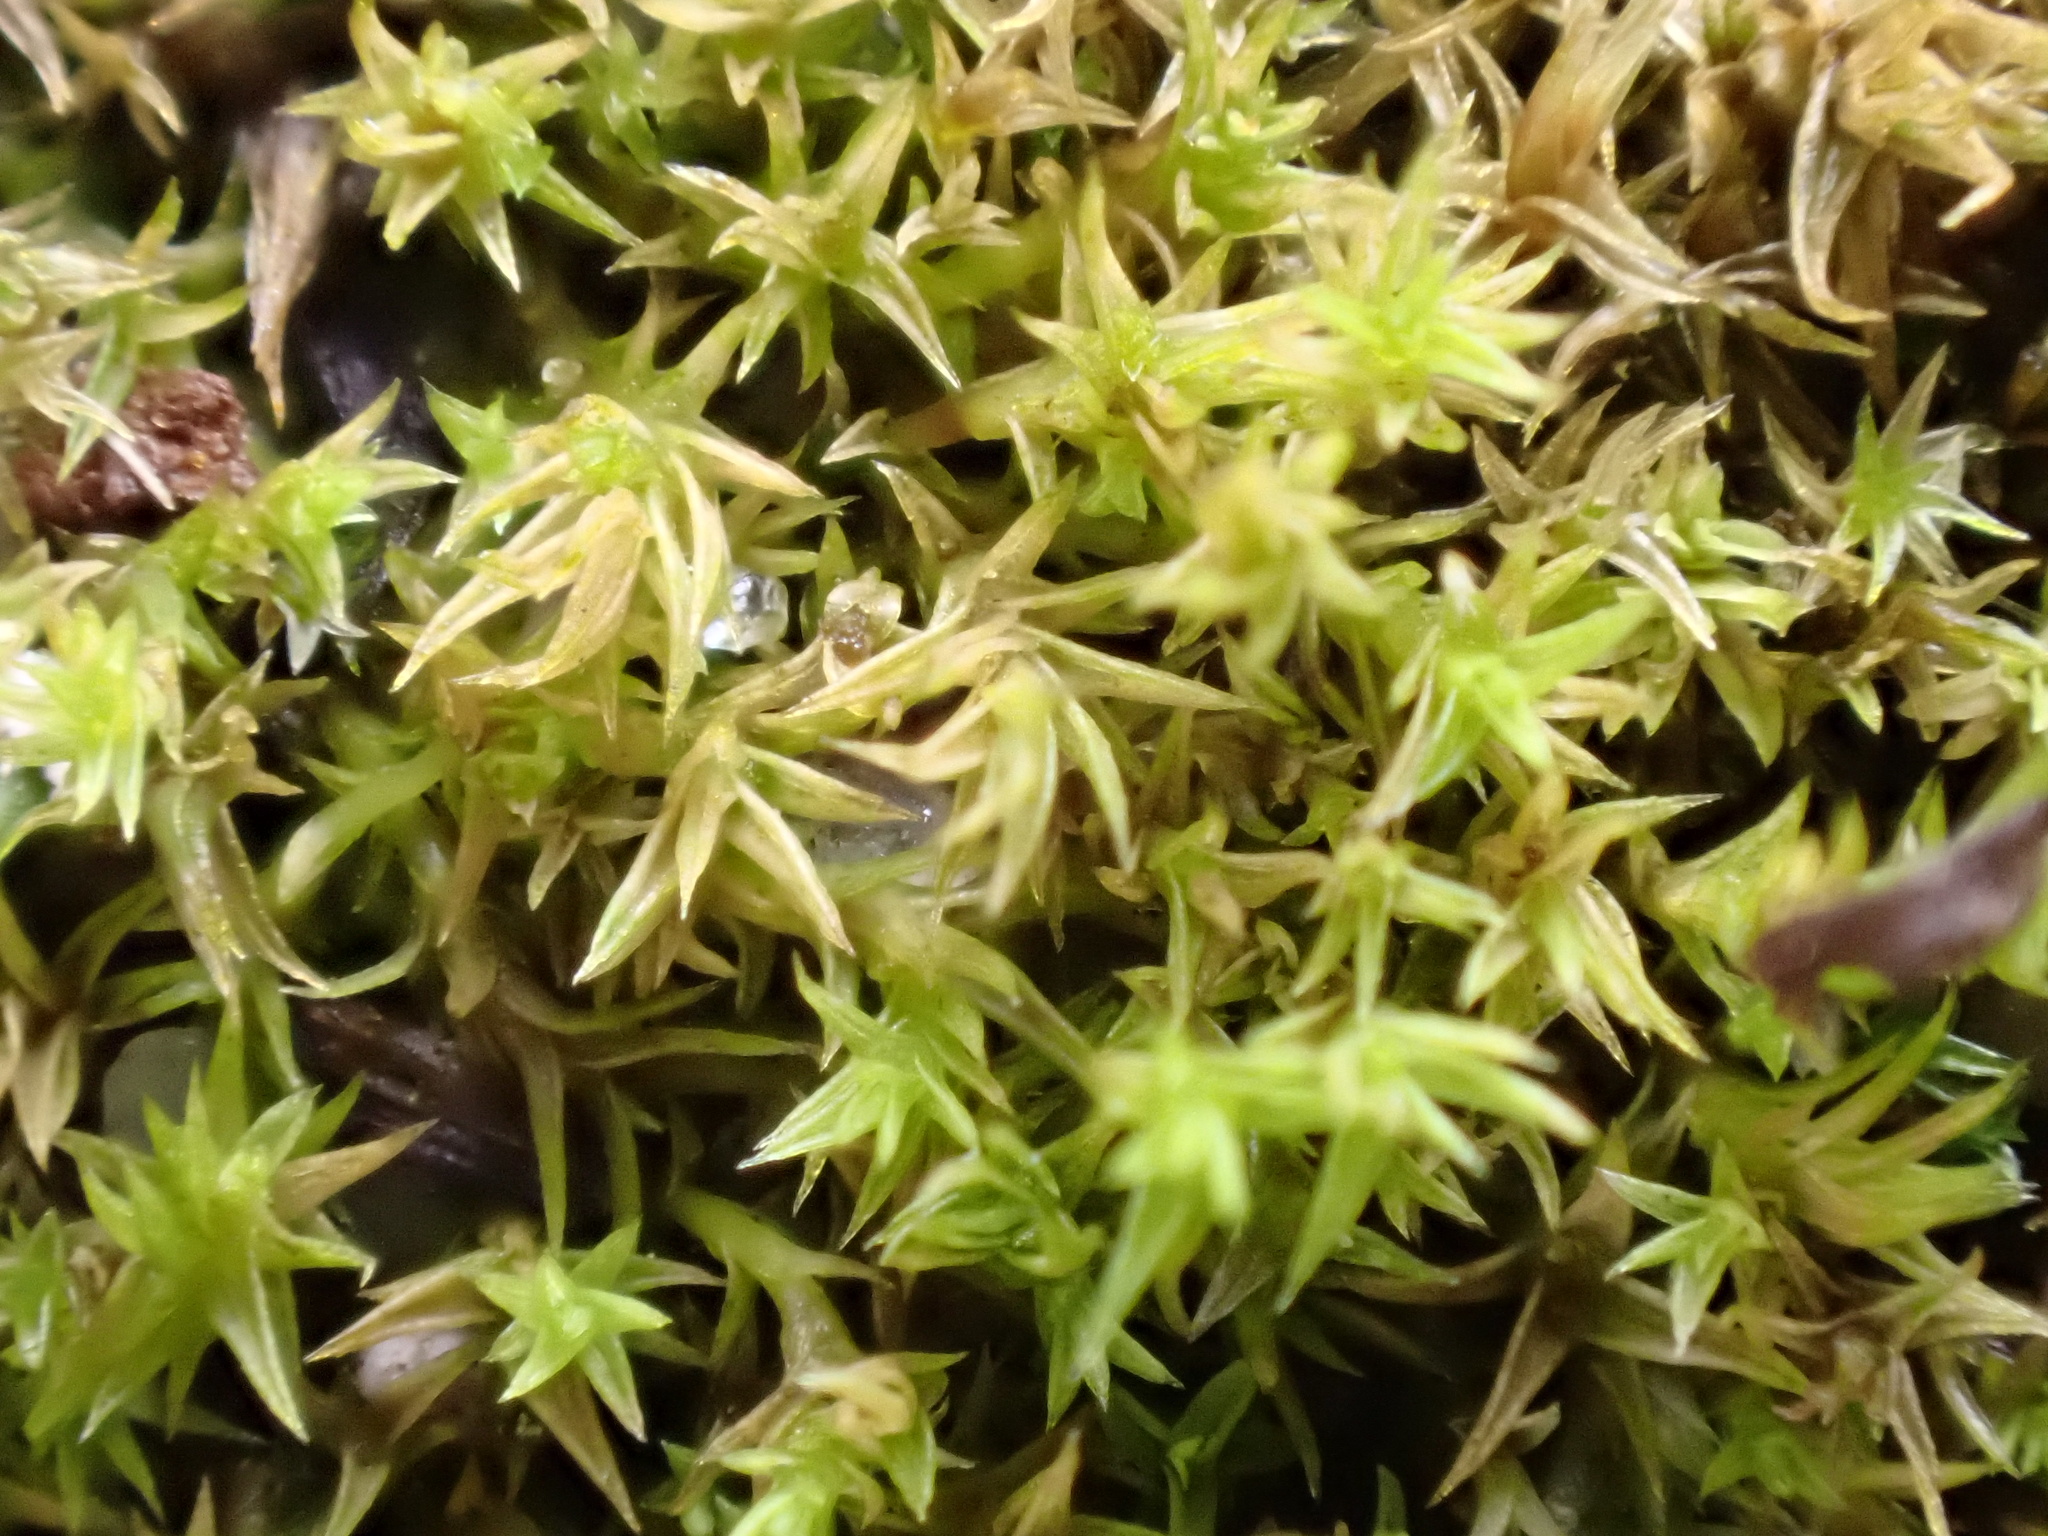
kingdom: Plantae
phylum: Bryophyta
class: Bryopsida
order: Pottiales
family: Pottiaceae
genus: Pseudocrossidium
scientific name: Pseudocrossidium hornschuchianum
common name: Hornschuch's beard-moss
